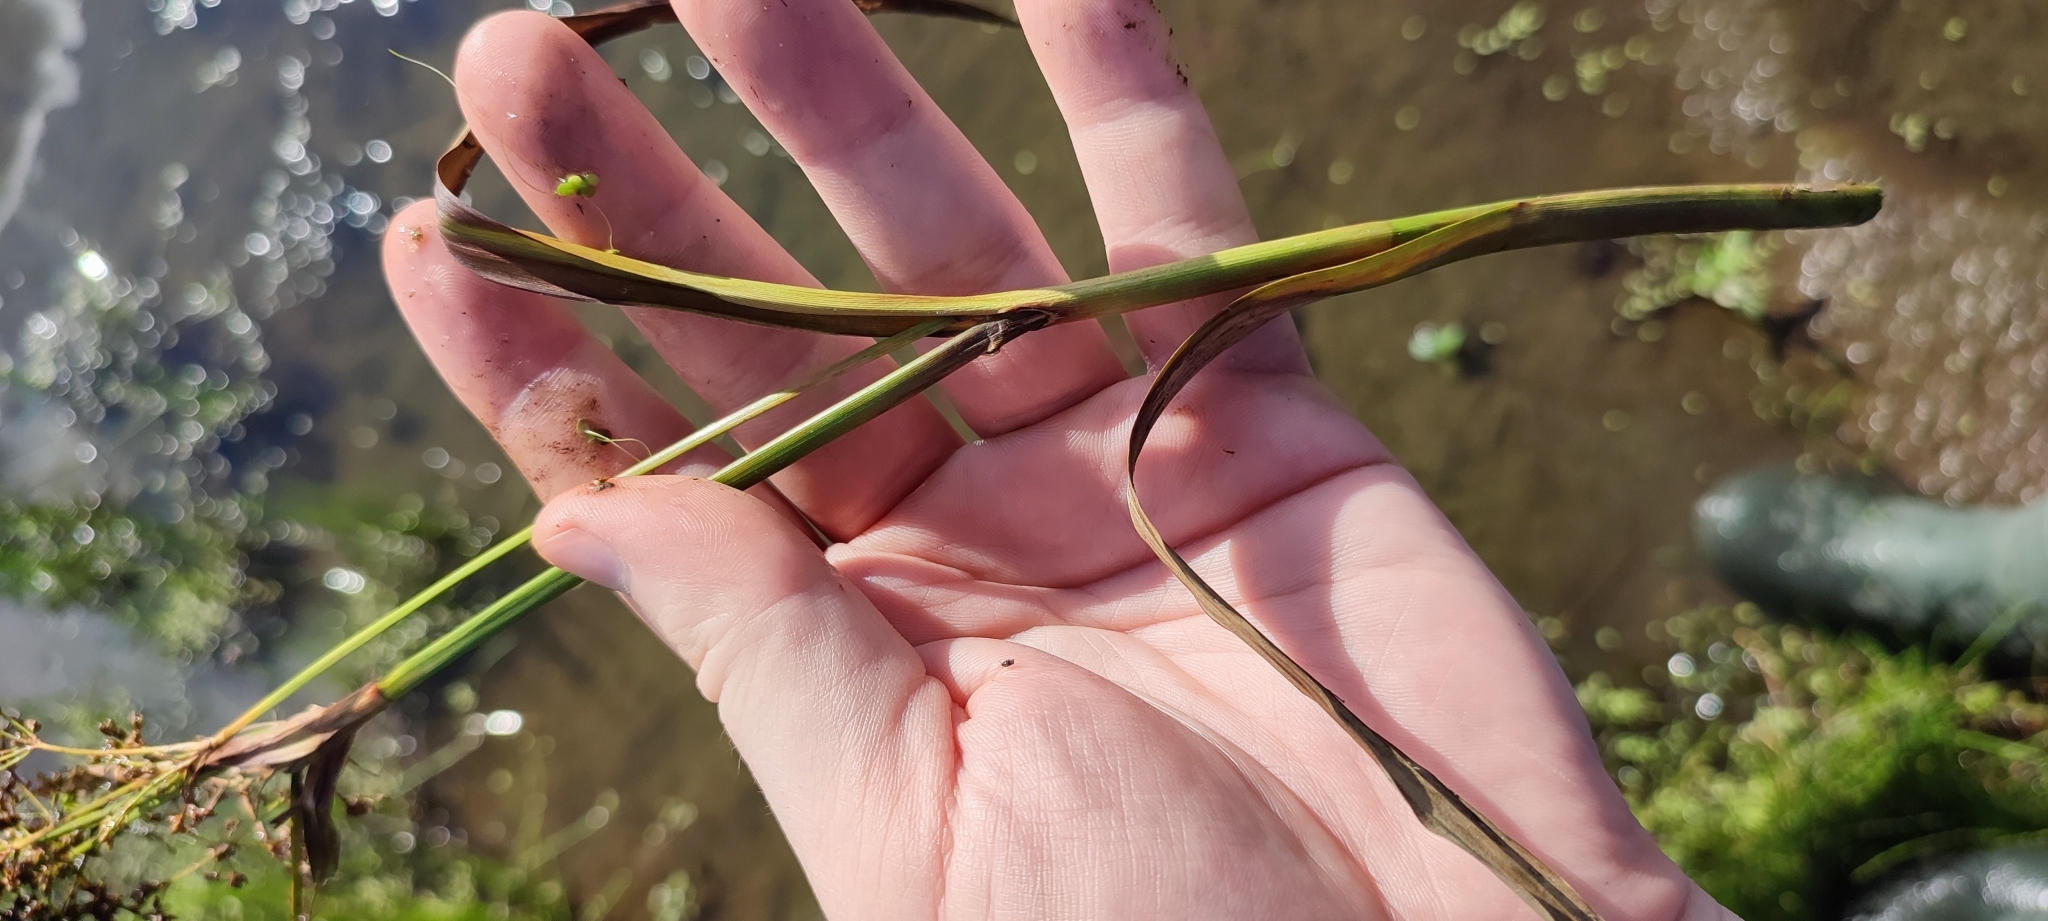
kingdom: Plantae
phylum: Tracheophyta
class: Liliopsida
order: Poales
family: Cyperaceae
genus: Scirpus
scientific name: Scirpus sylvaticus
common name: Wood club-rush
